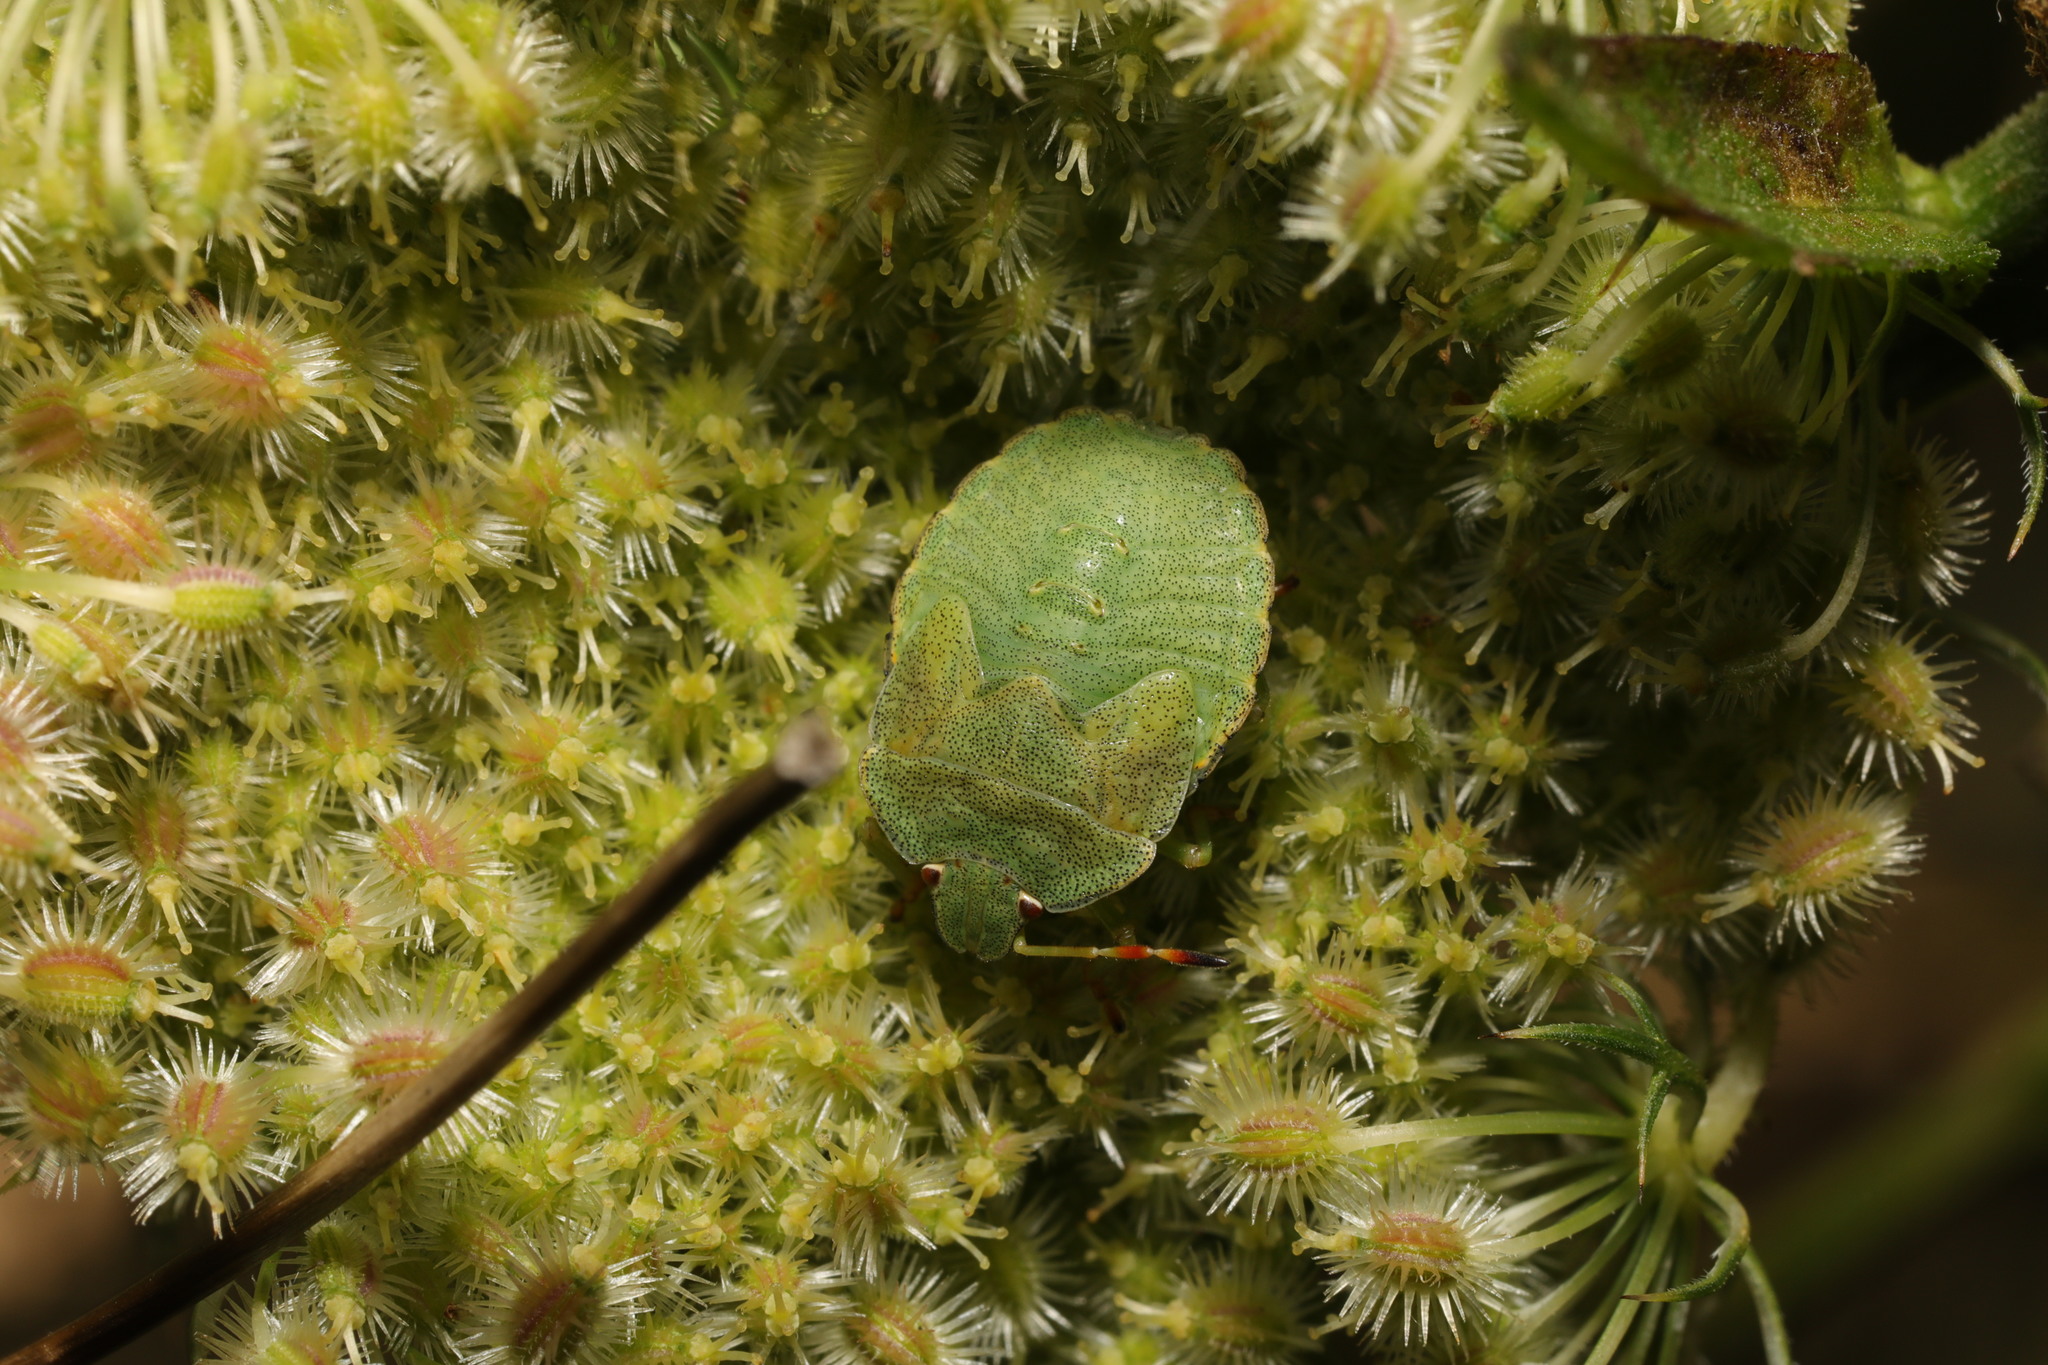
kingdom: Animalia
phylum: Arthropoda
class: Insecta
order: Hemiptera
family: Pentatomidae
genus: Palomena
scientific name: Palomena prasina
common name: Green shieldbug
